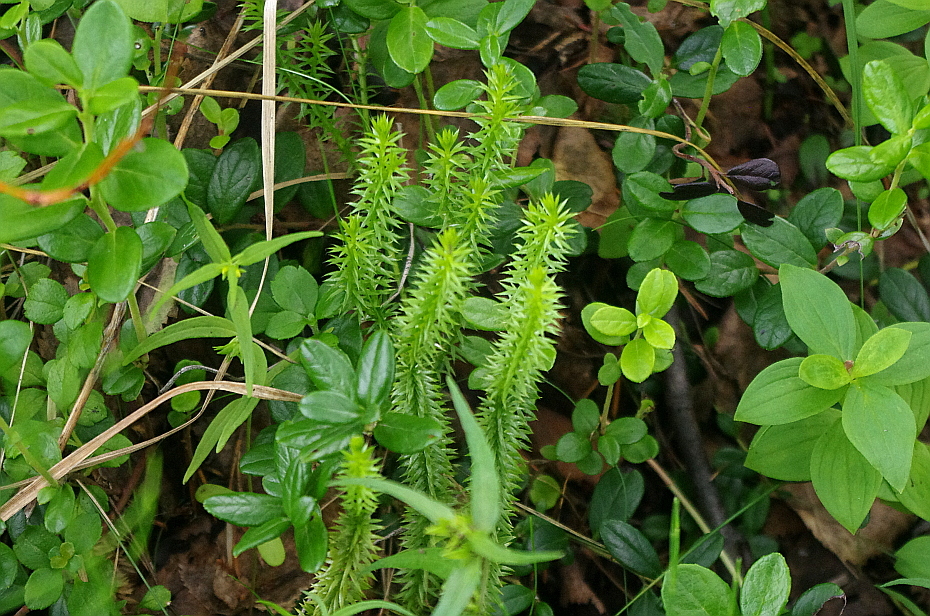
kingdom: Plantae
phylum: Tracheophyta
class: Lycopodiopsida
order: Lycopodiales
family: Lycopodiaceae
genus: Spinulum
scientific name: Spinulum annotinum
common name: Interrupted club-moss
